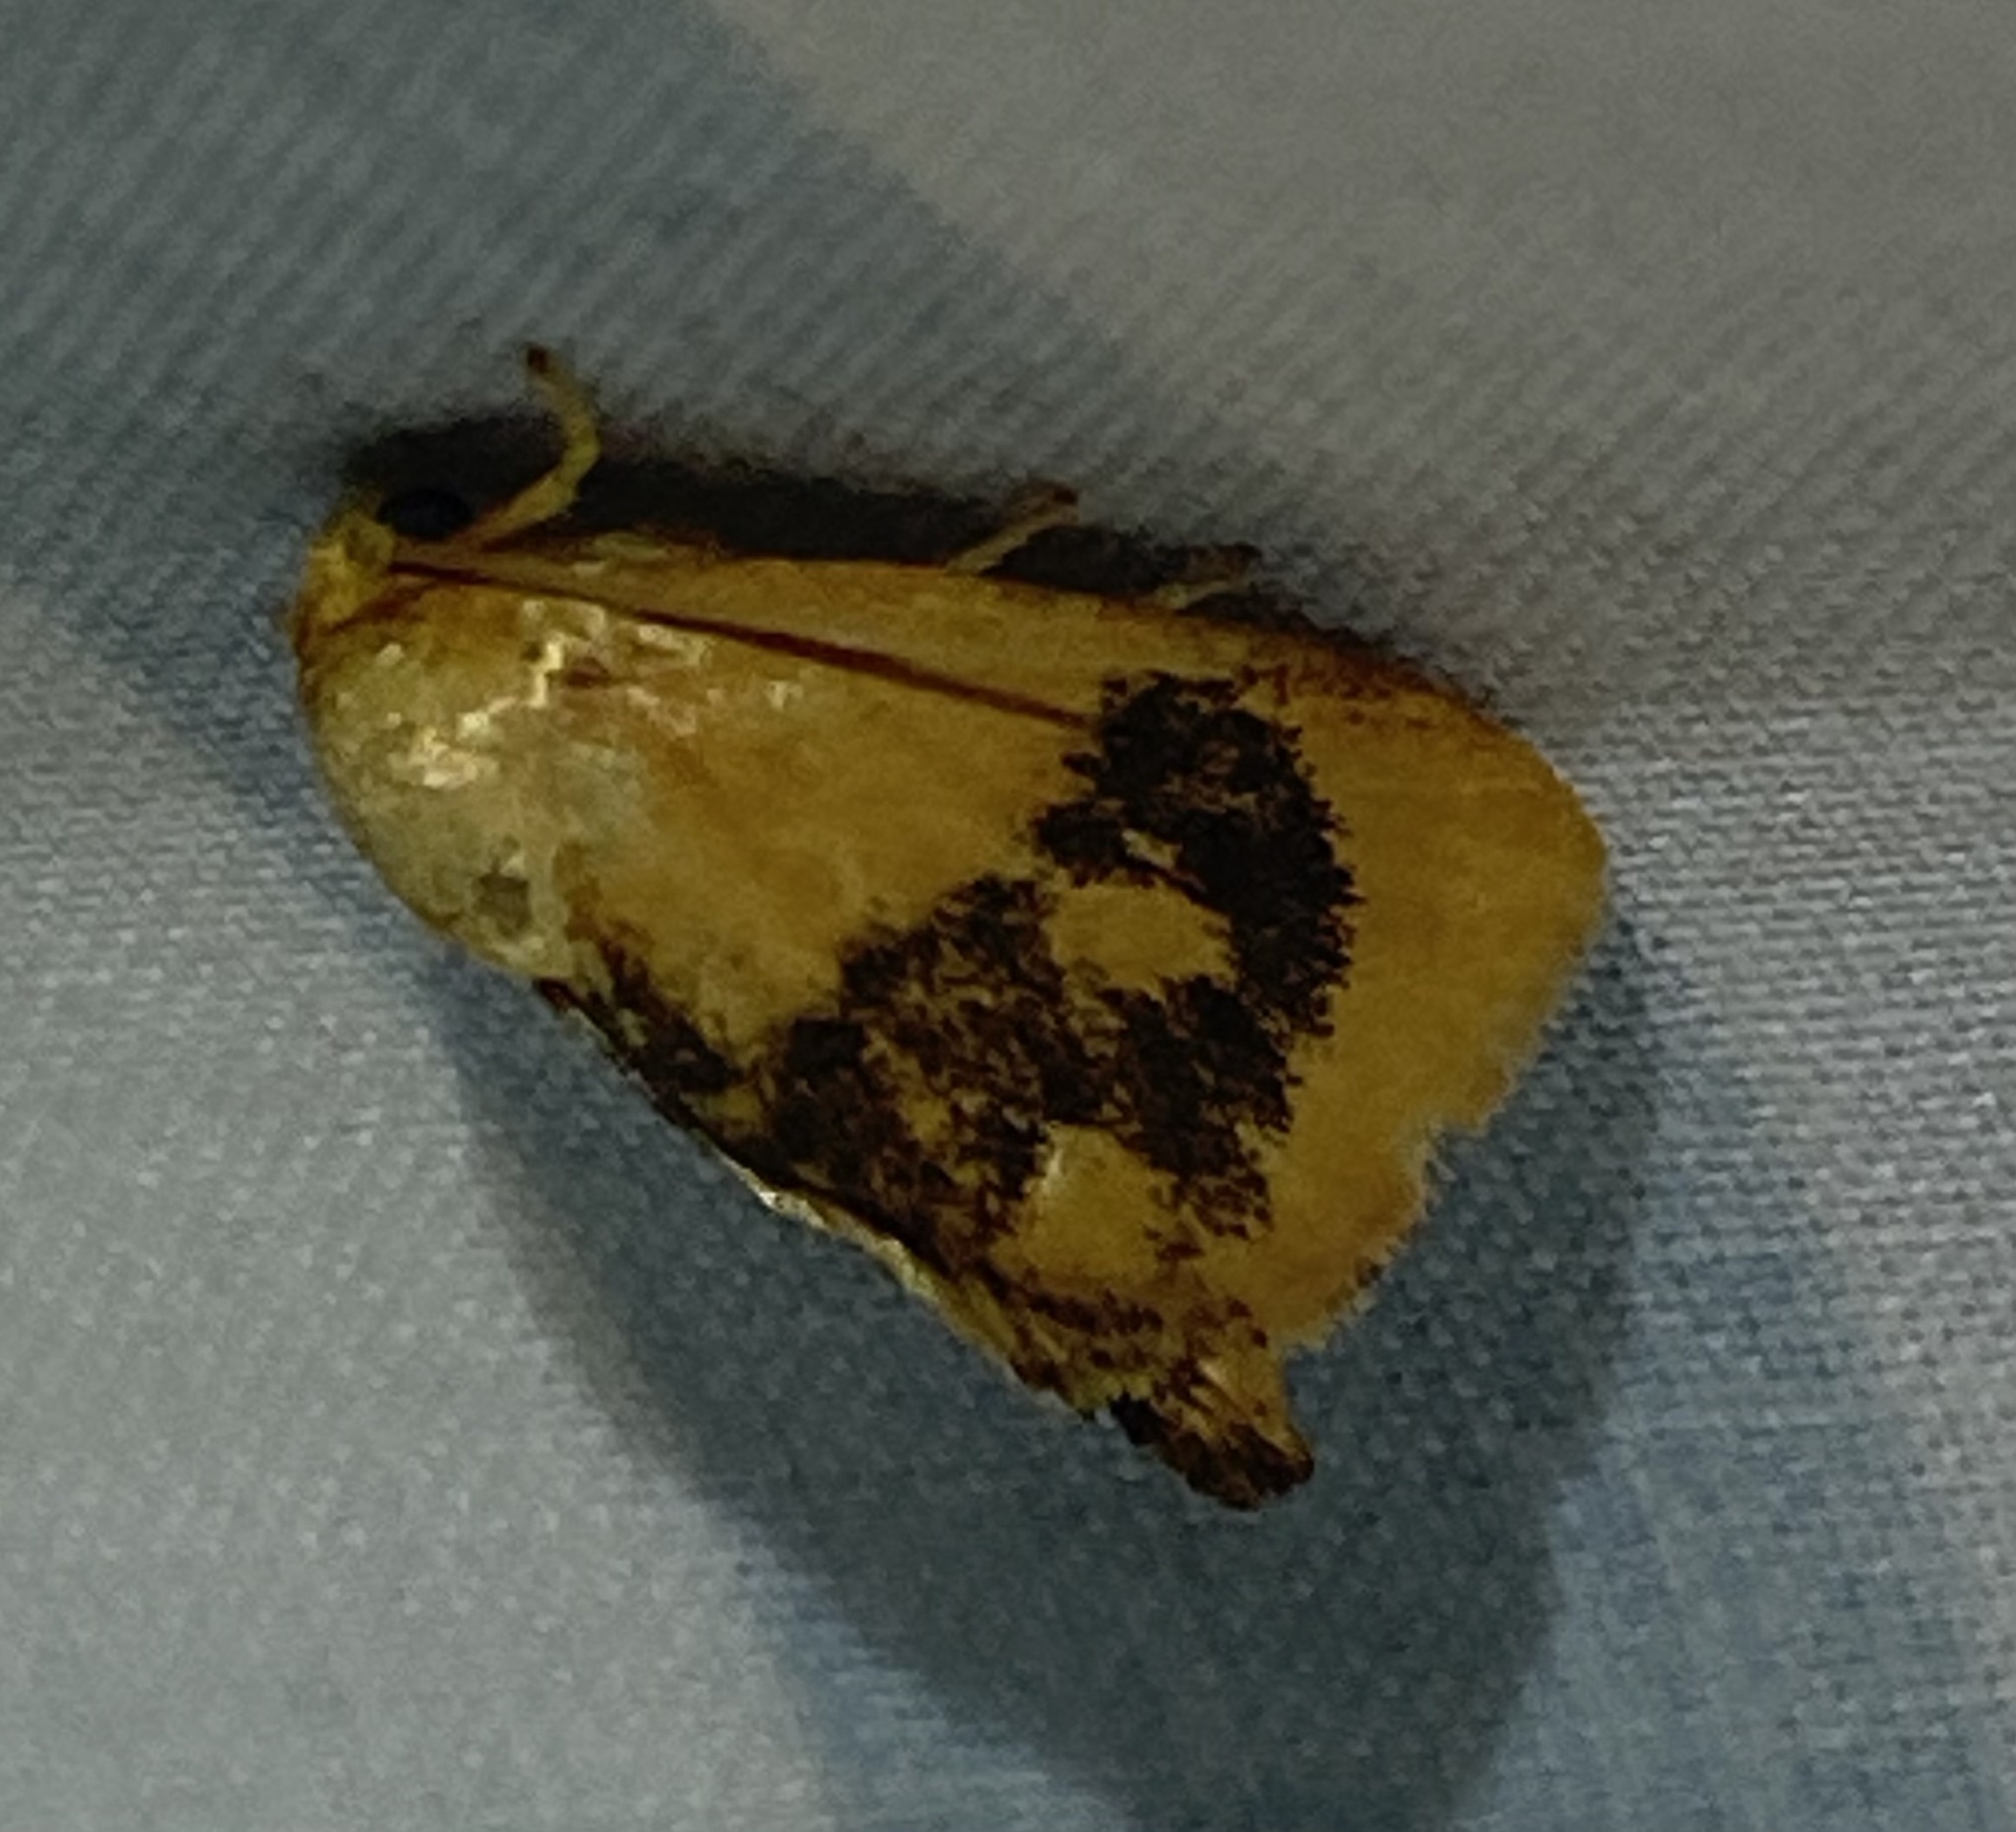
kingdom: Animalia
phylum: Arthropoda
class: Insecta
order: Lepidoptera
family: Limacodidae
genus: Tortricidia
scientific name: Tortricidia flexuosa
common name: Abbreviated button slug moth
